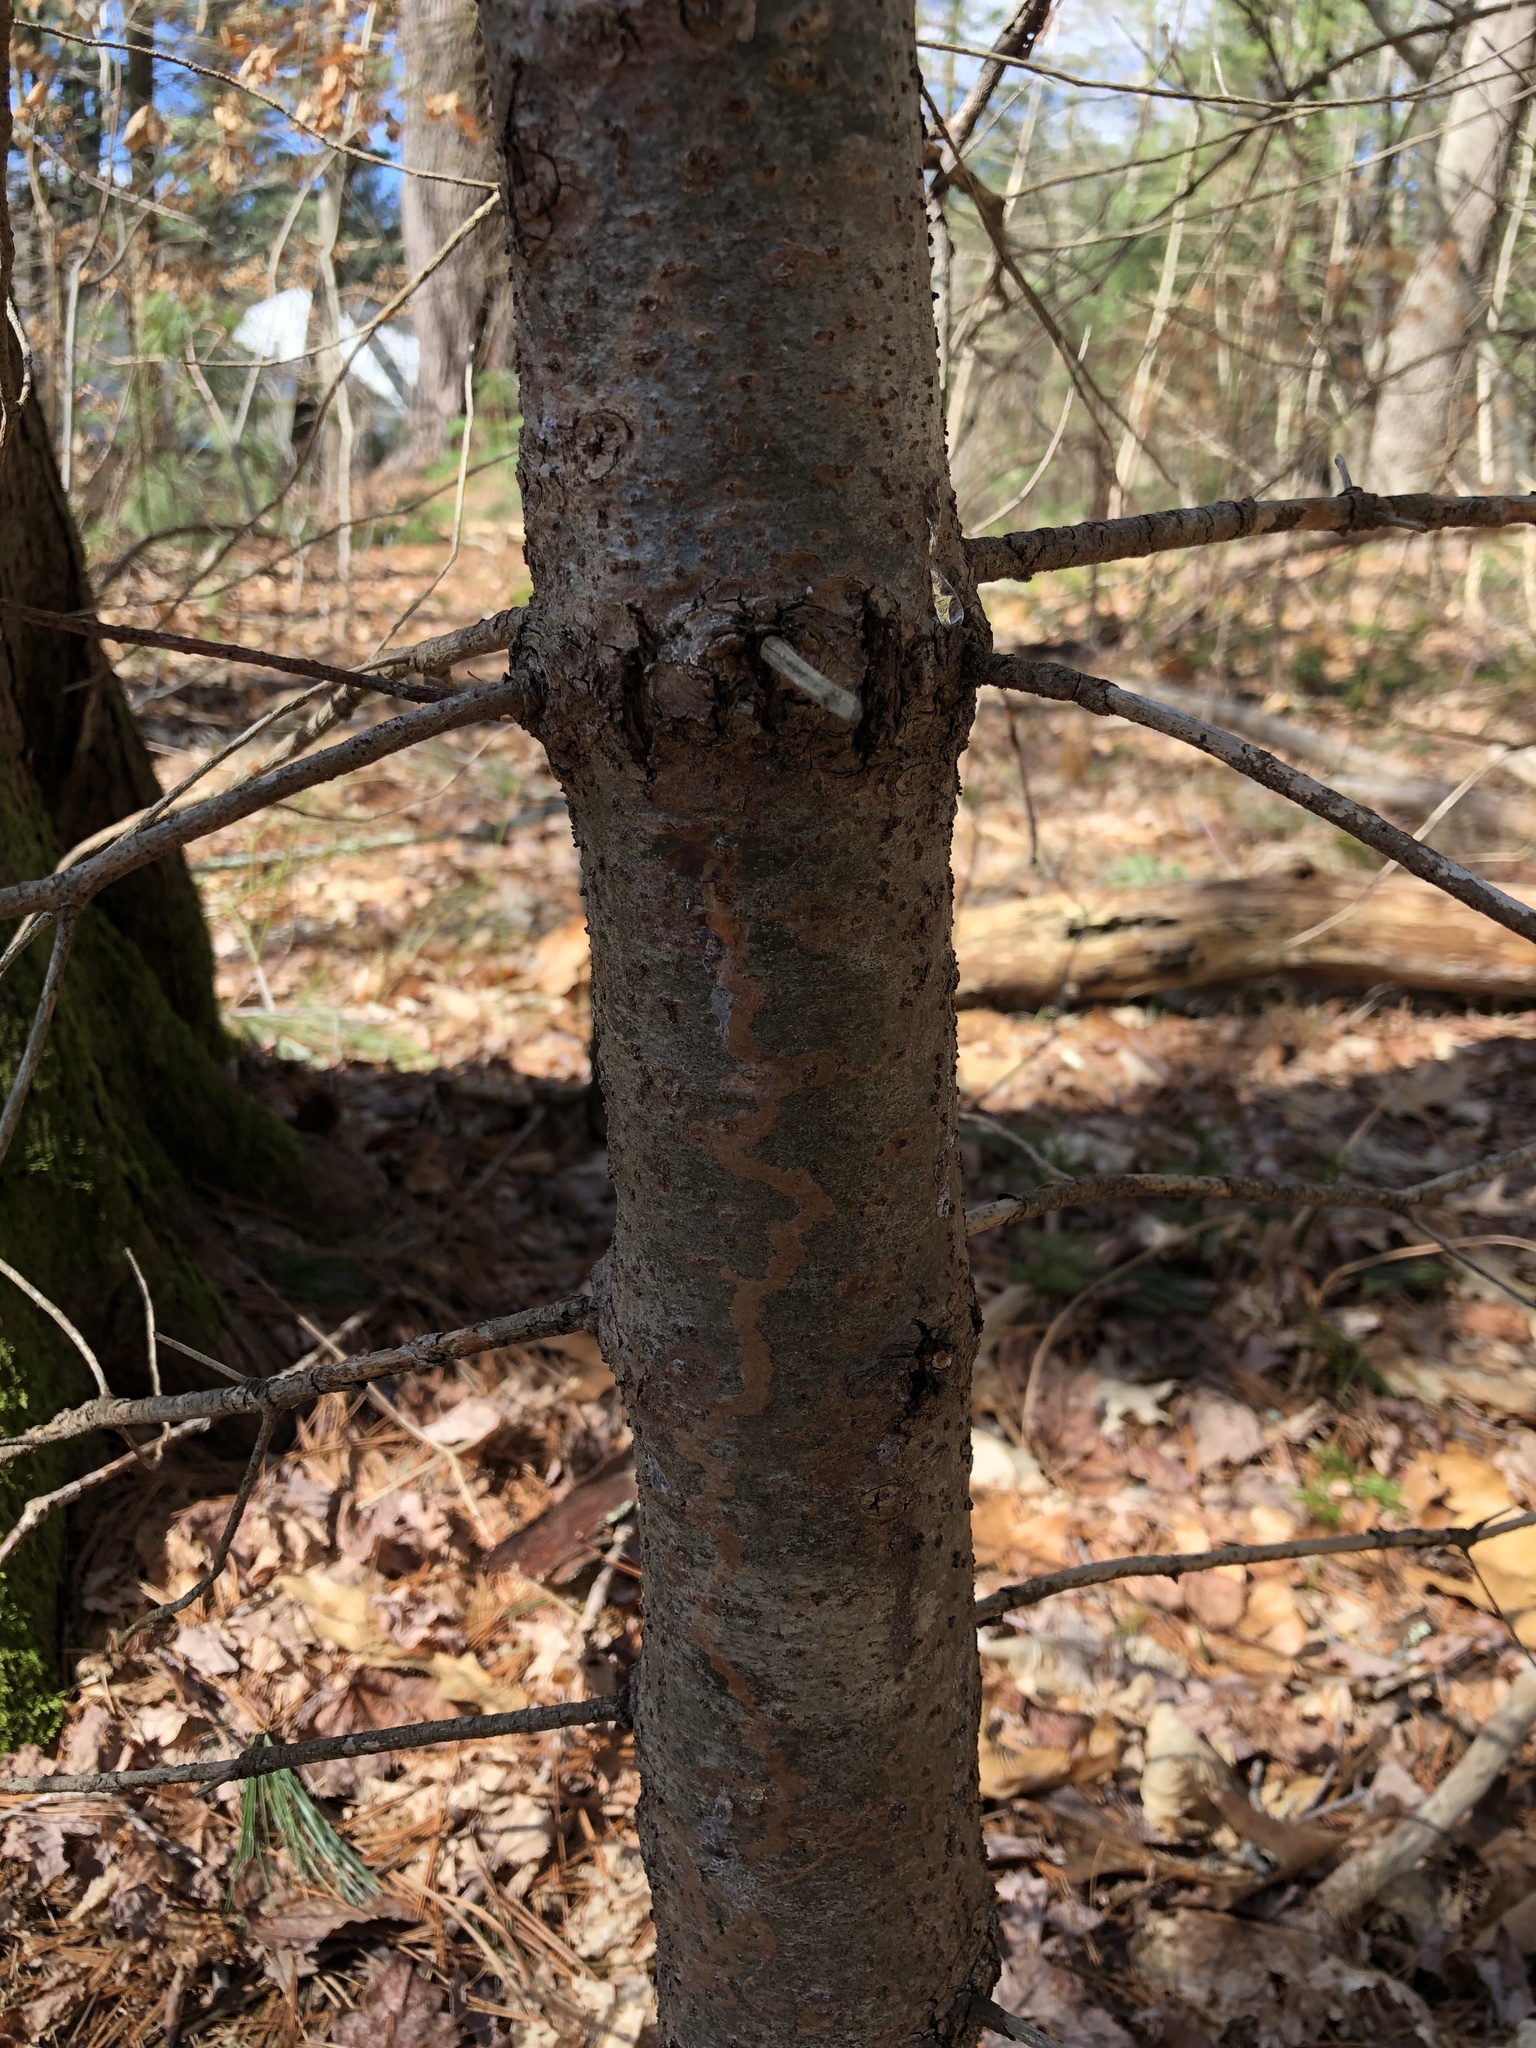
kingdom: Animalia
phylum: Arthropoda
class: Insecta
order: Lepidoptera
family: Gracillariidae
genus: Marmara
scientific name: Marmara fasciella
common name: White pine barkminer moth
